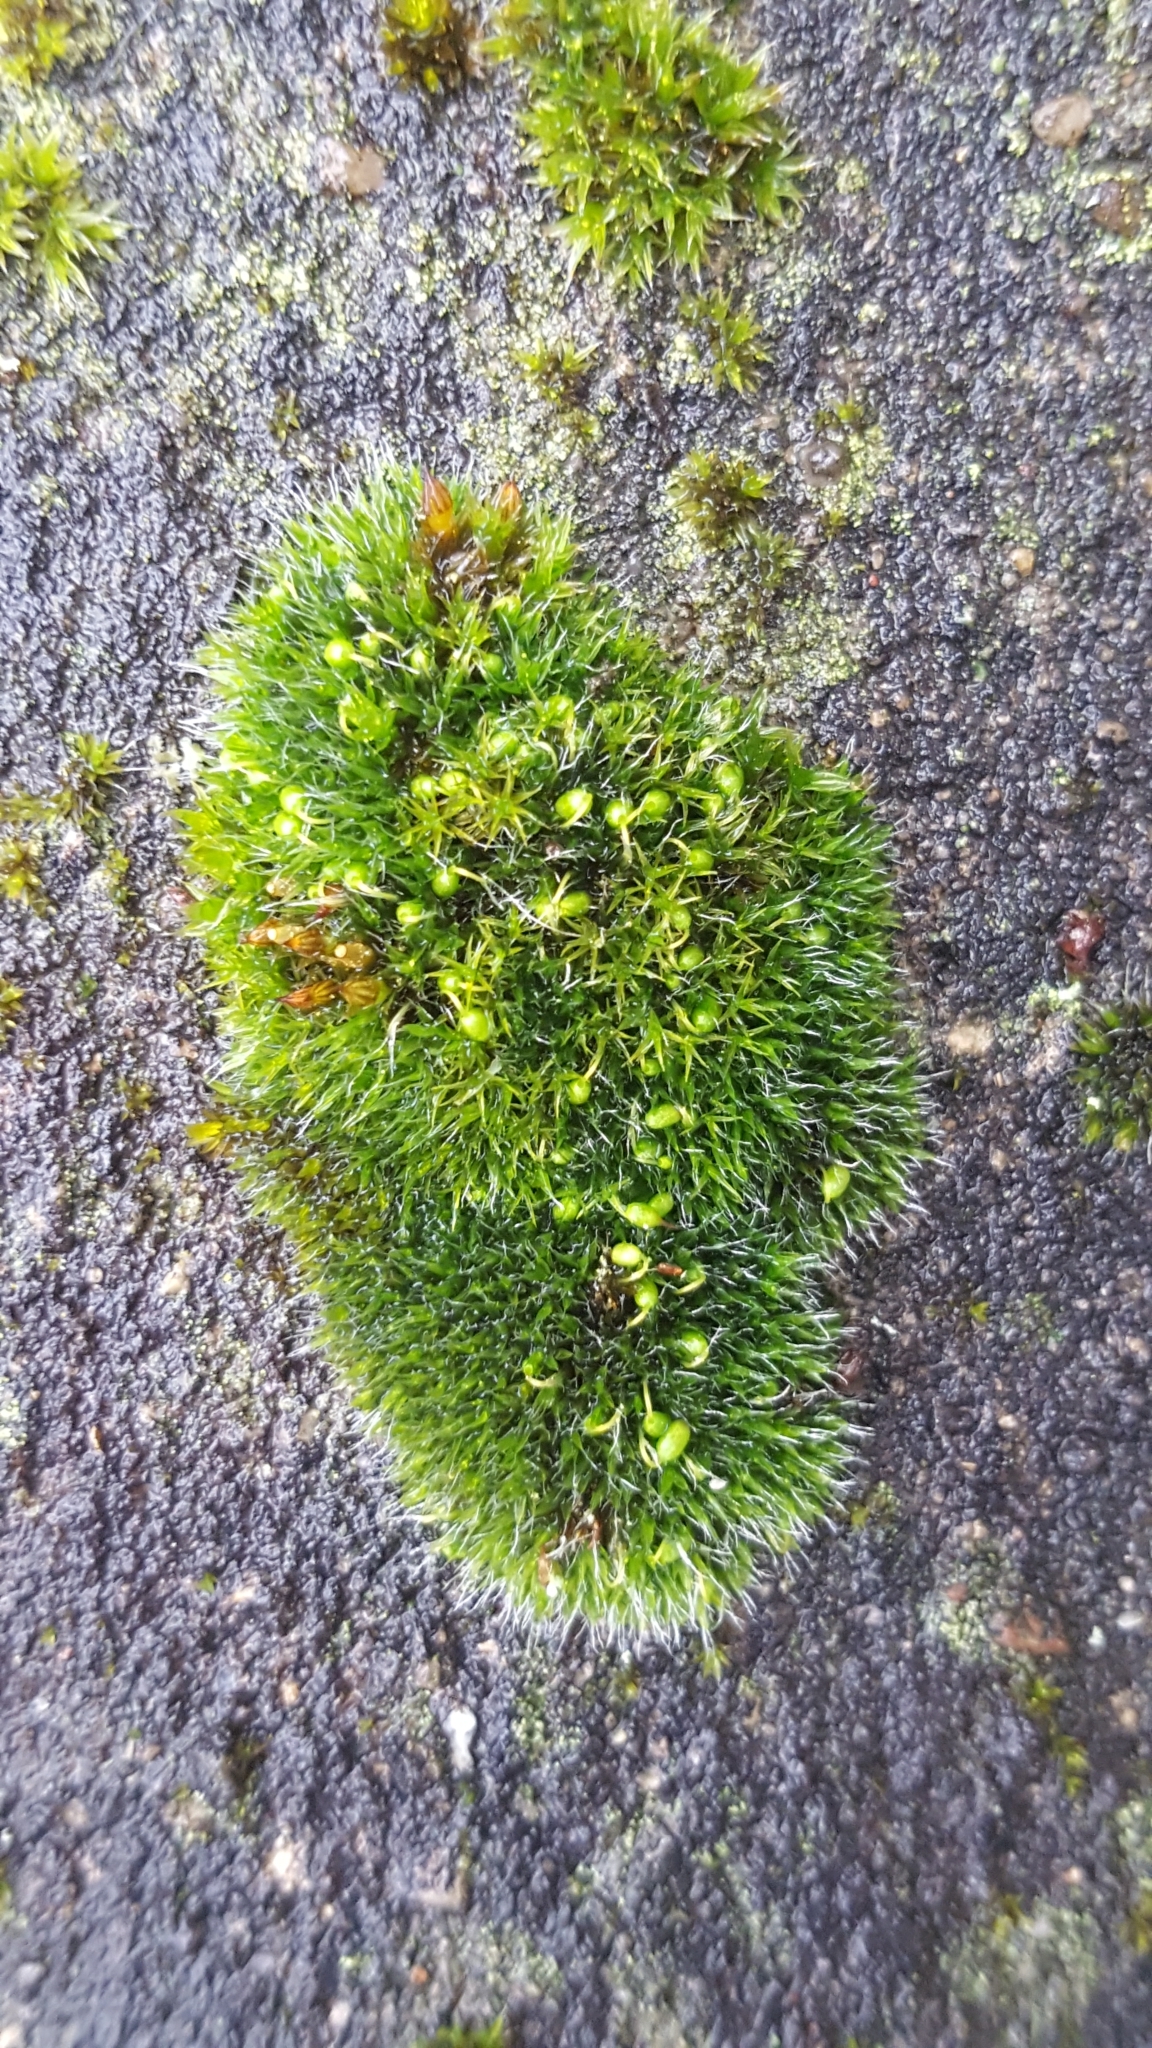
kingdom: Plantae
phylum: Bryophyta
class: Bryopsida
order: Grimmiales
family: Grimmiaceae
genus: Grimmia
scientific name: Grimmia pulvinata
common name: Grey-cushioned grimmia
